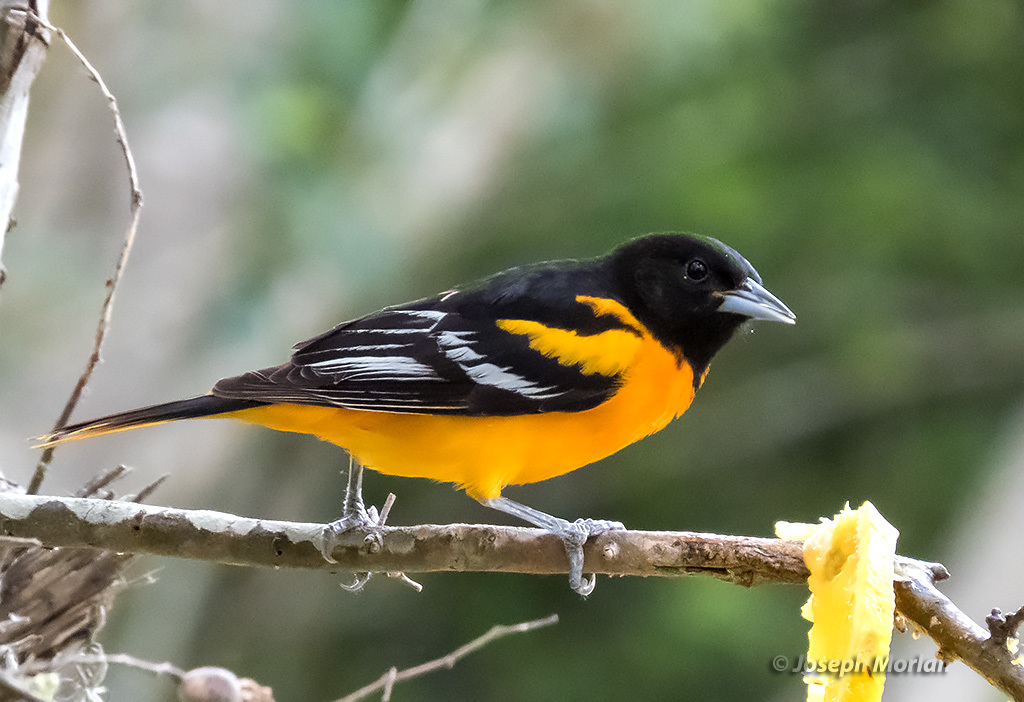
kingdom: Animalia
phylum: Chordata
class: Aves
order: Passeriformes
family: Icteridae
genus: Icterus
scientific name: Icterus galbula
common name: Baltimore oriole
